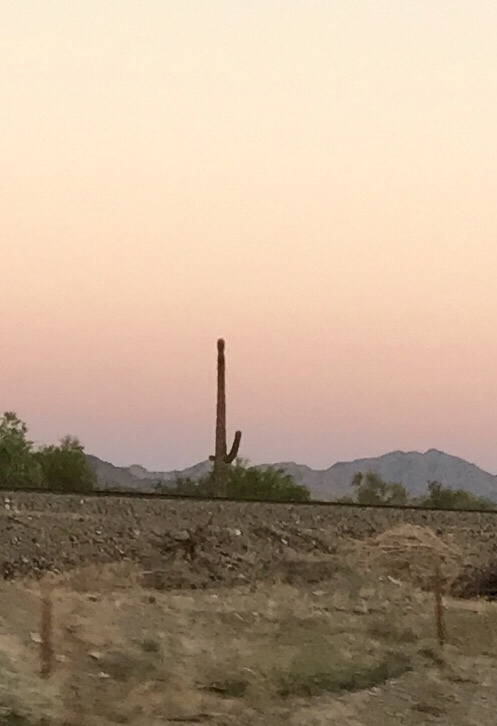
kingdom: Plantae
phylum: Tracheophyta
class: Magnoliopsida
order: Caryophyllales
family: Cactaceae
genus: Carnegiea
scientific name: Carnegiea gigantea
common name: Saguaro
